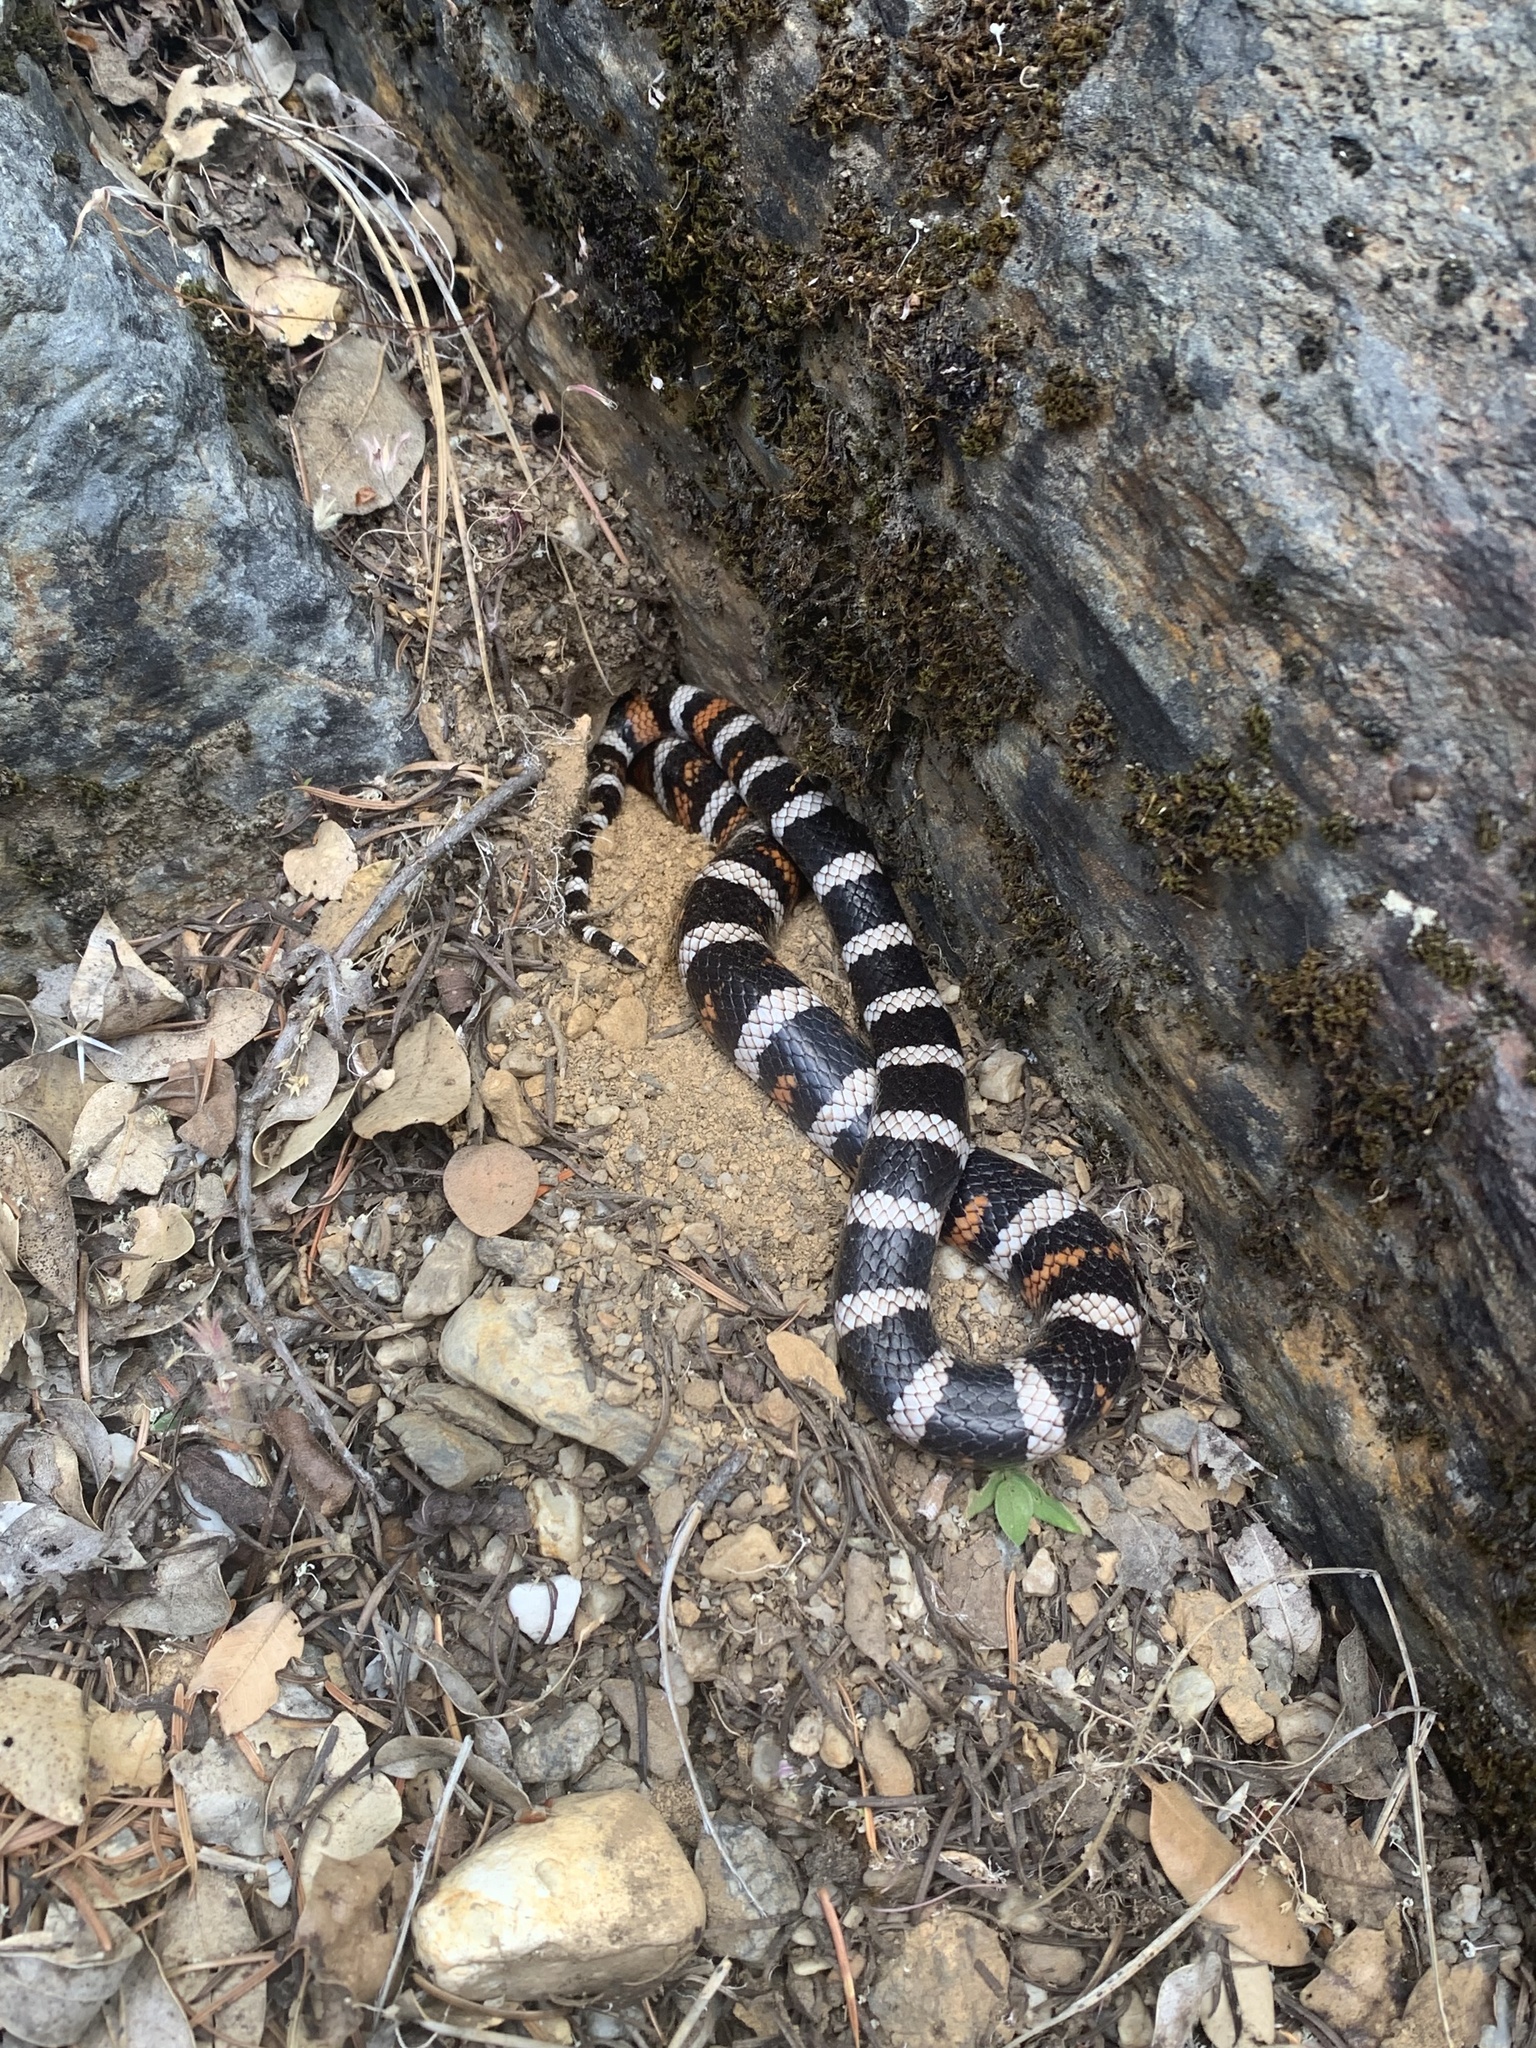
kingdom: Animalia
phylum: Chordata
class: Squamata
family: Colubridae
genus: Lampropeltis
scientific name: Lampropeltis zonata
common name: California mountain kingsnake
